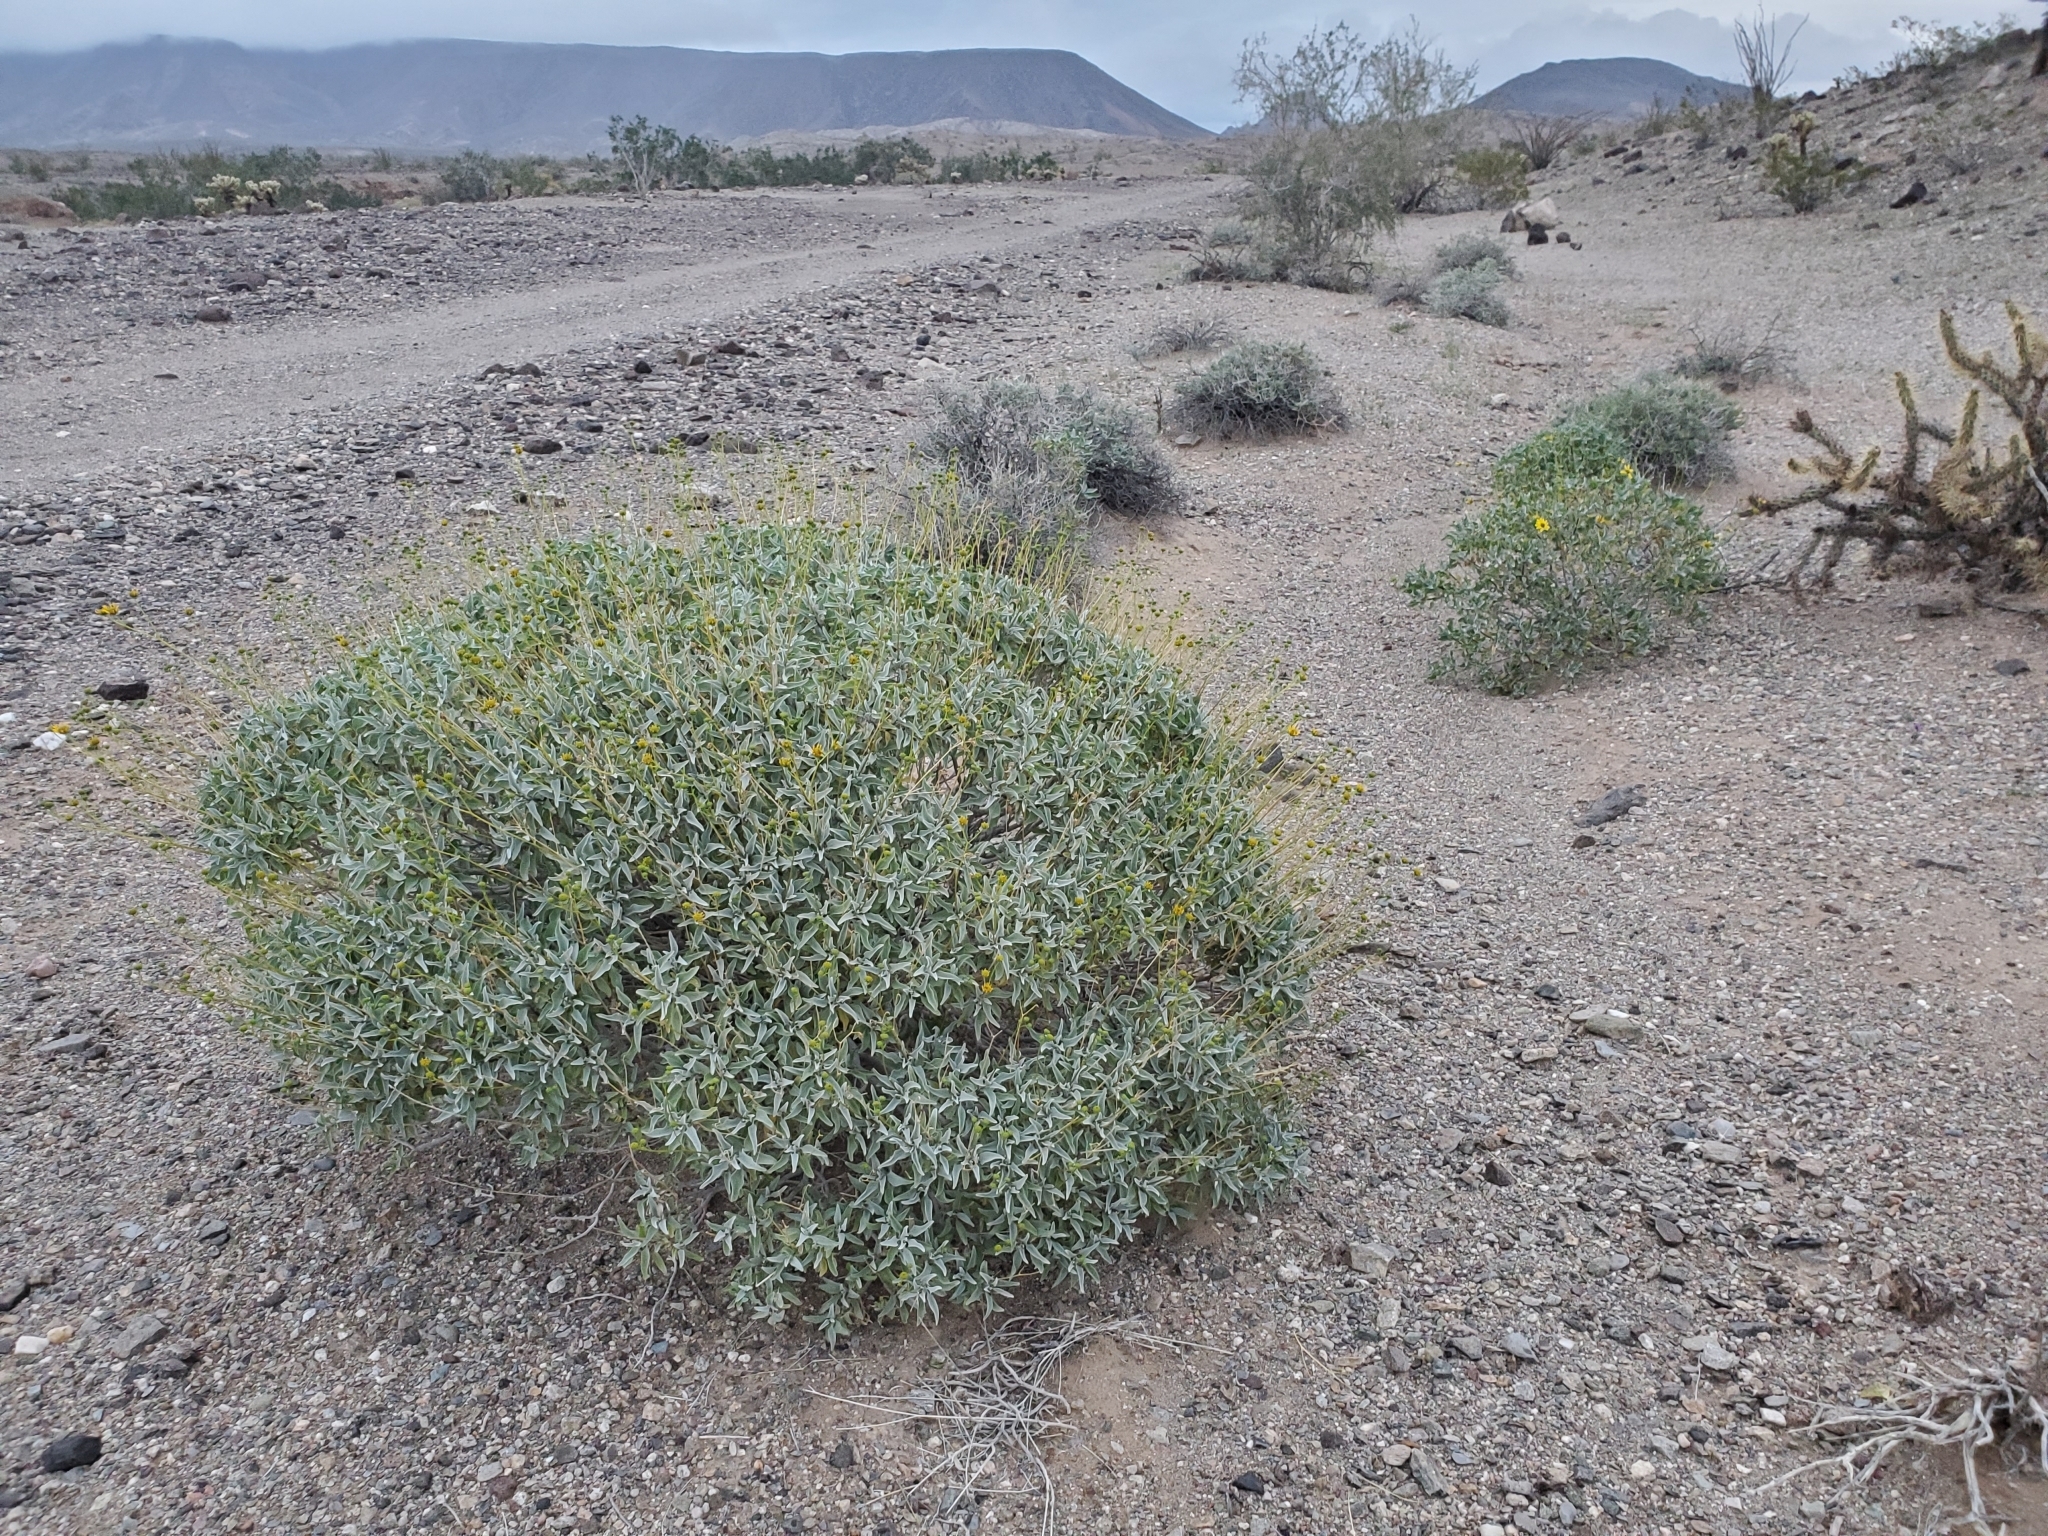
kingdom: Plantae
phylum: Tracheophyta
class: Magnoliopsida
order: Asterales
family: Asteraceae
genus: Encelia
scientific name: Encelia farinosa
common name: Brittlebush
